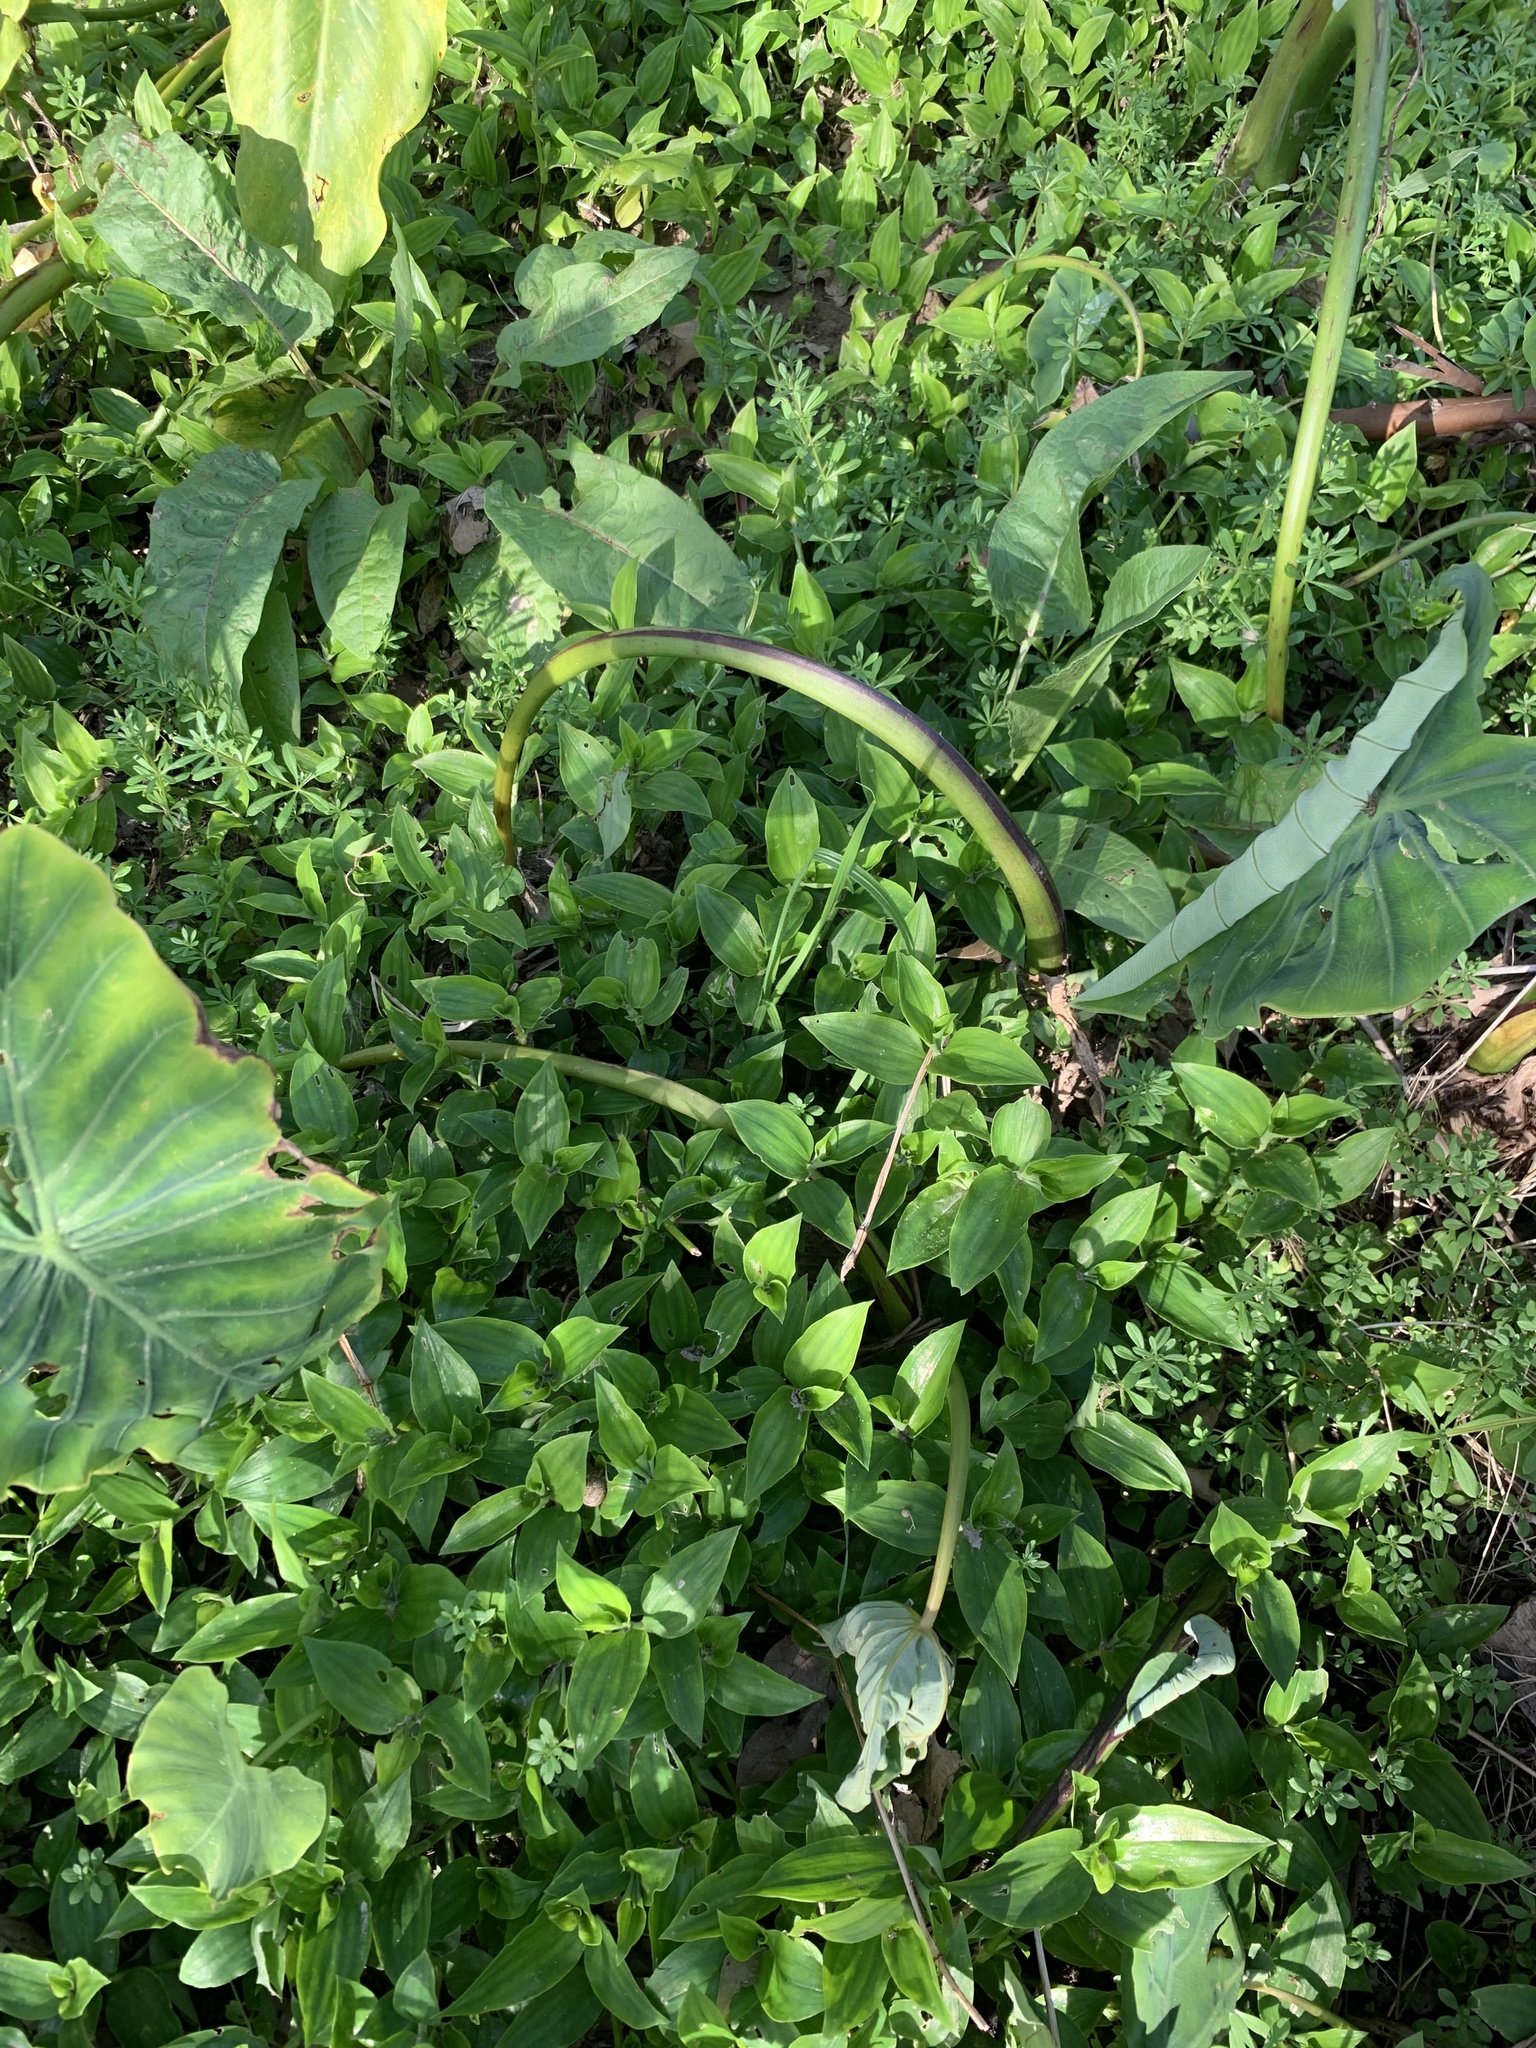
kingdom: Plantae
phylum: Tracheophyta
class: Liliopsida
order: Commelinales
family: Commelinaceae
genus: Tradescantia
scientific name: Tradescantia fluminensis
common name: Wandering-jew
